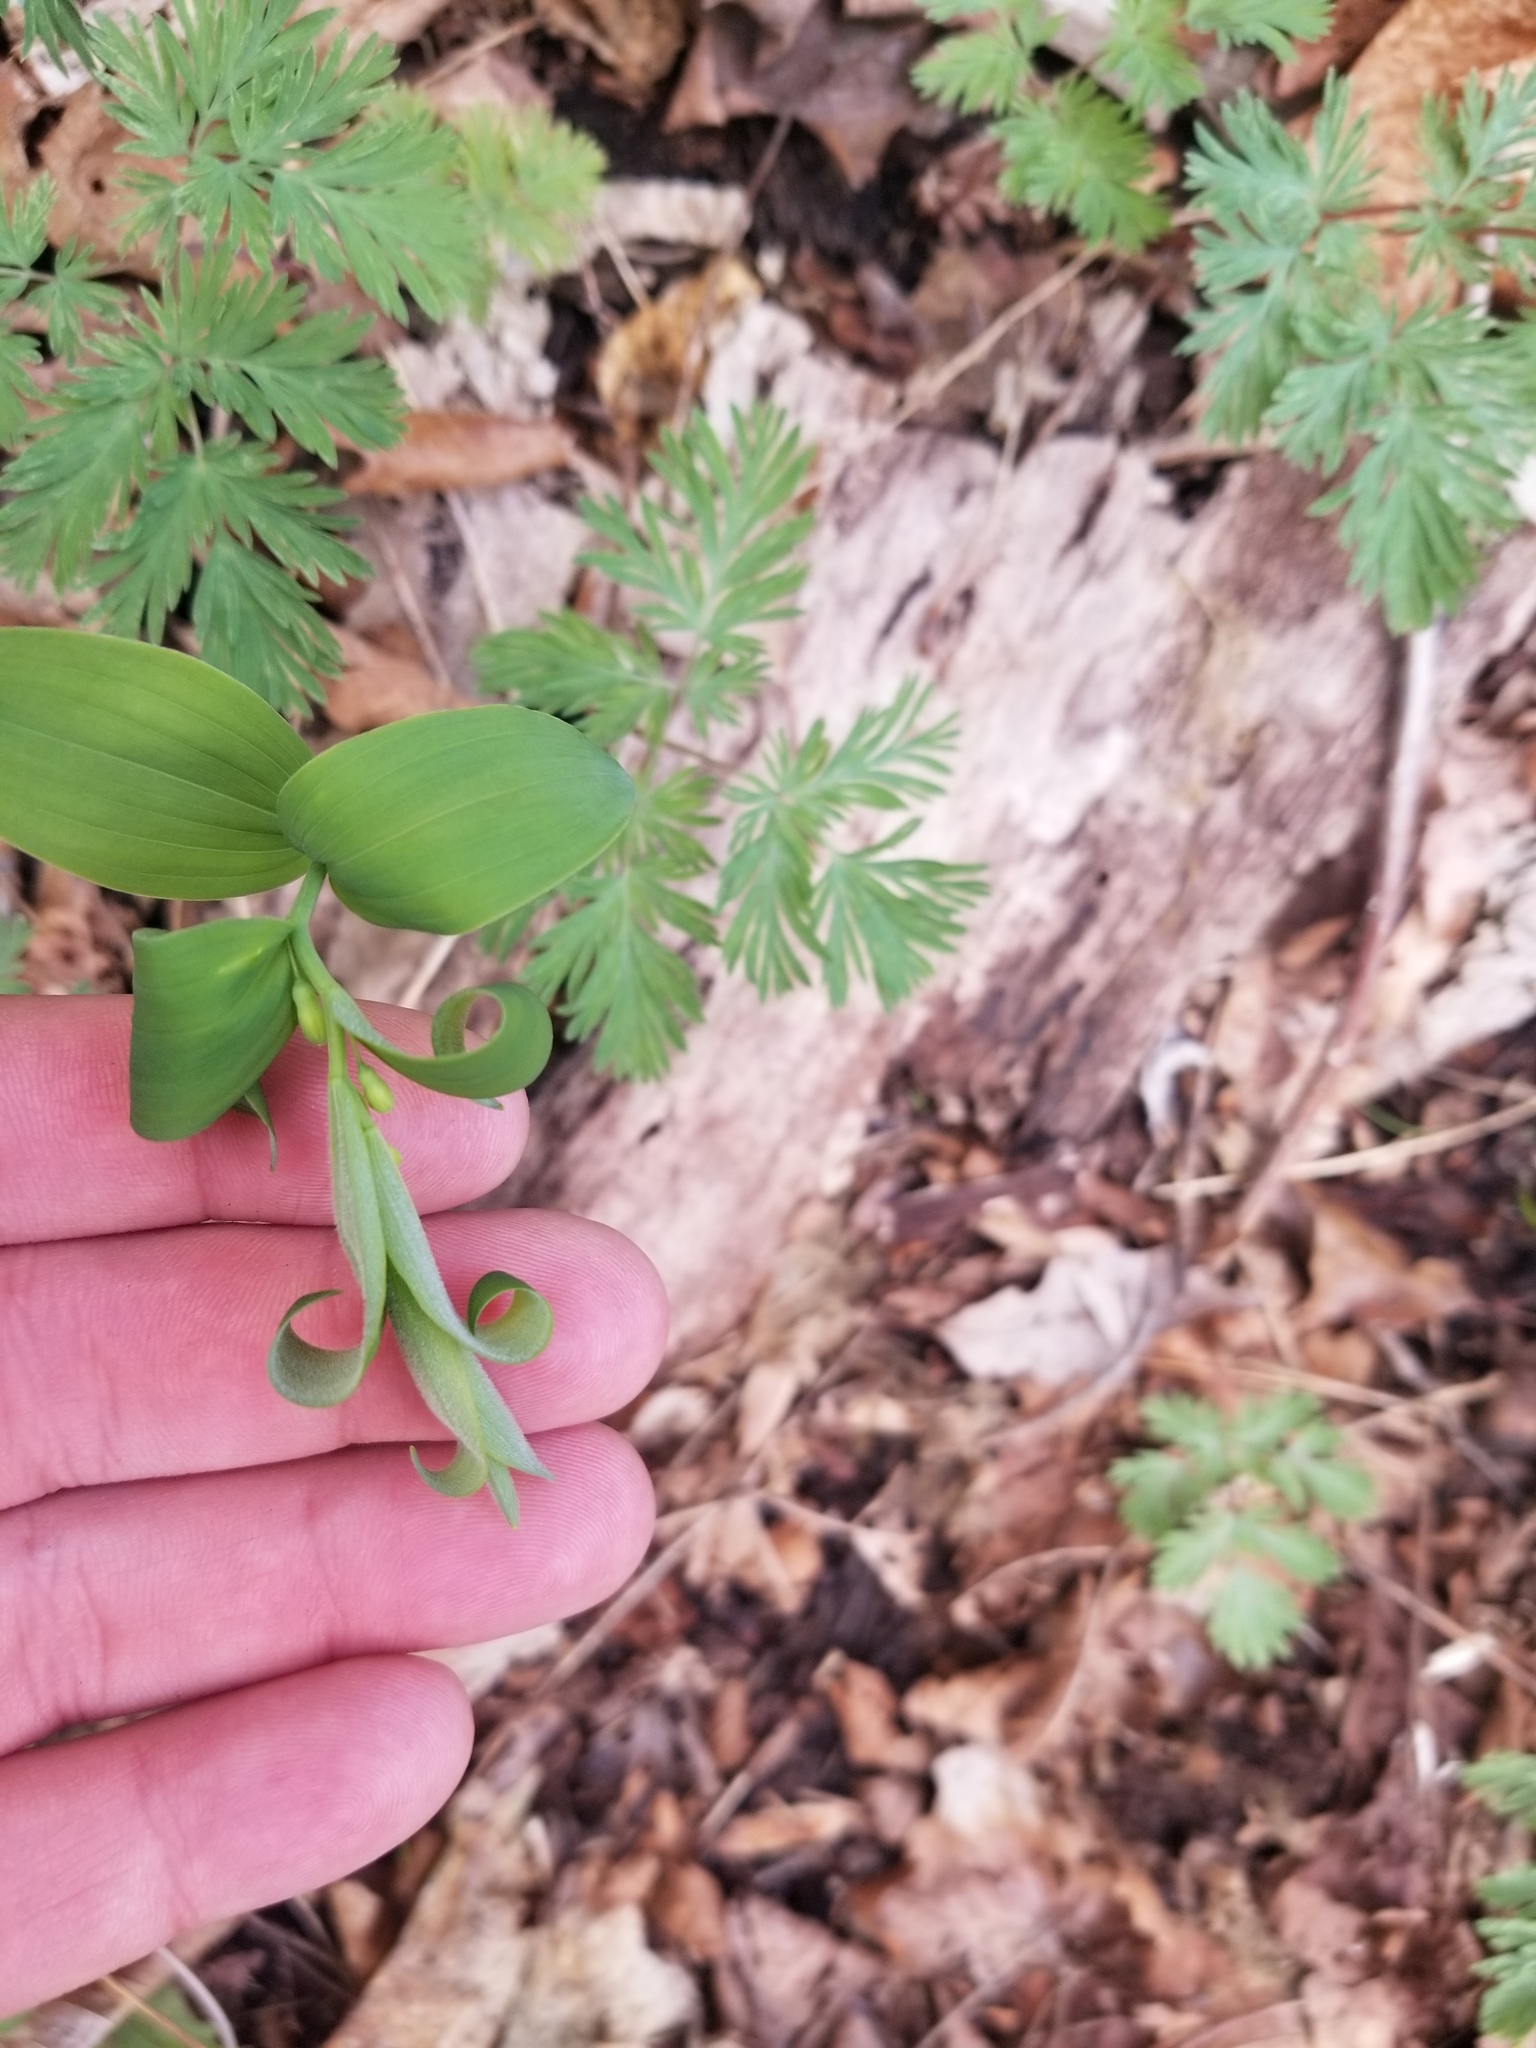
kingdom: Plantae
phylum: Tracheophyta
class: Liliopsida
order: Asparagales
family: Asparagaceae
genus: Polygonatum
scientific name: Polygonatum pubescens
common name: Downy solomon's seal
